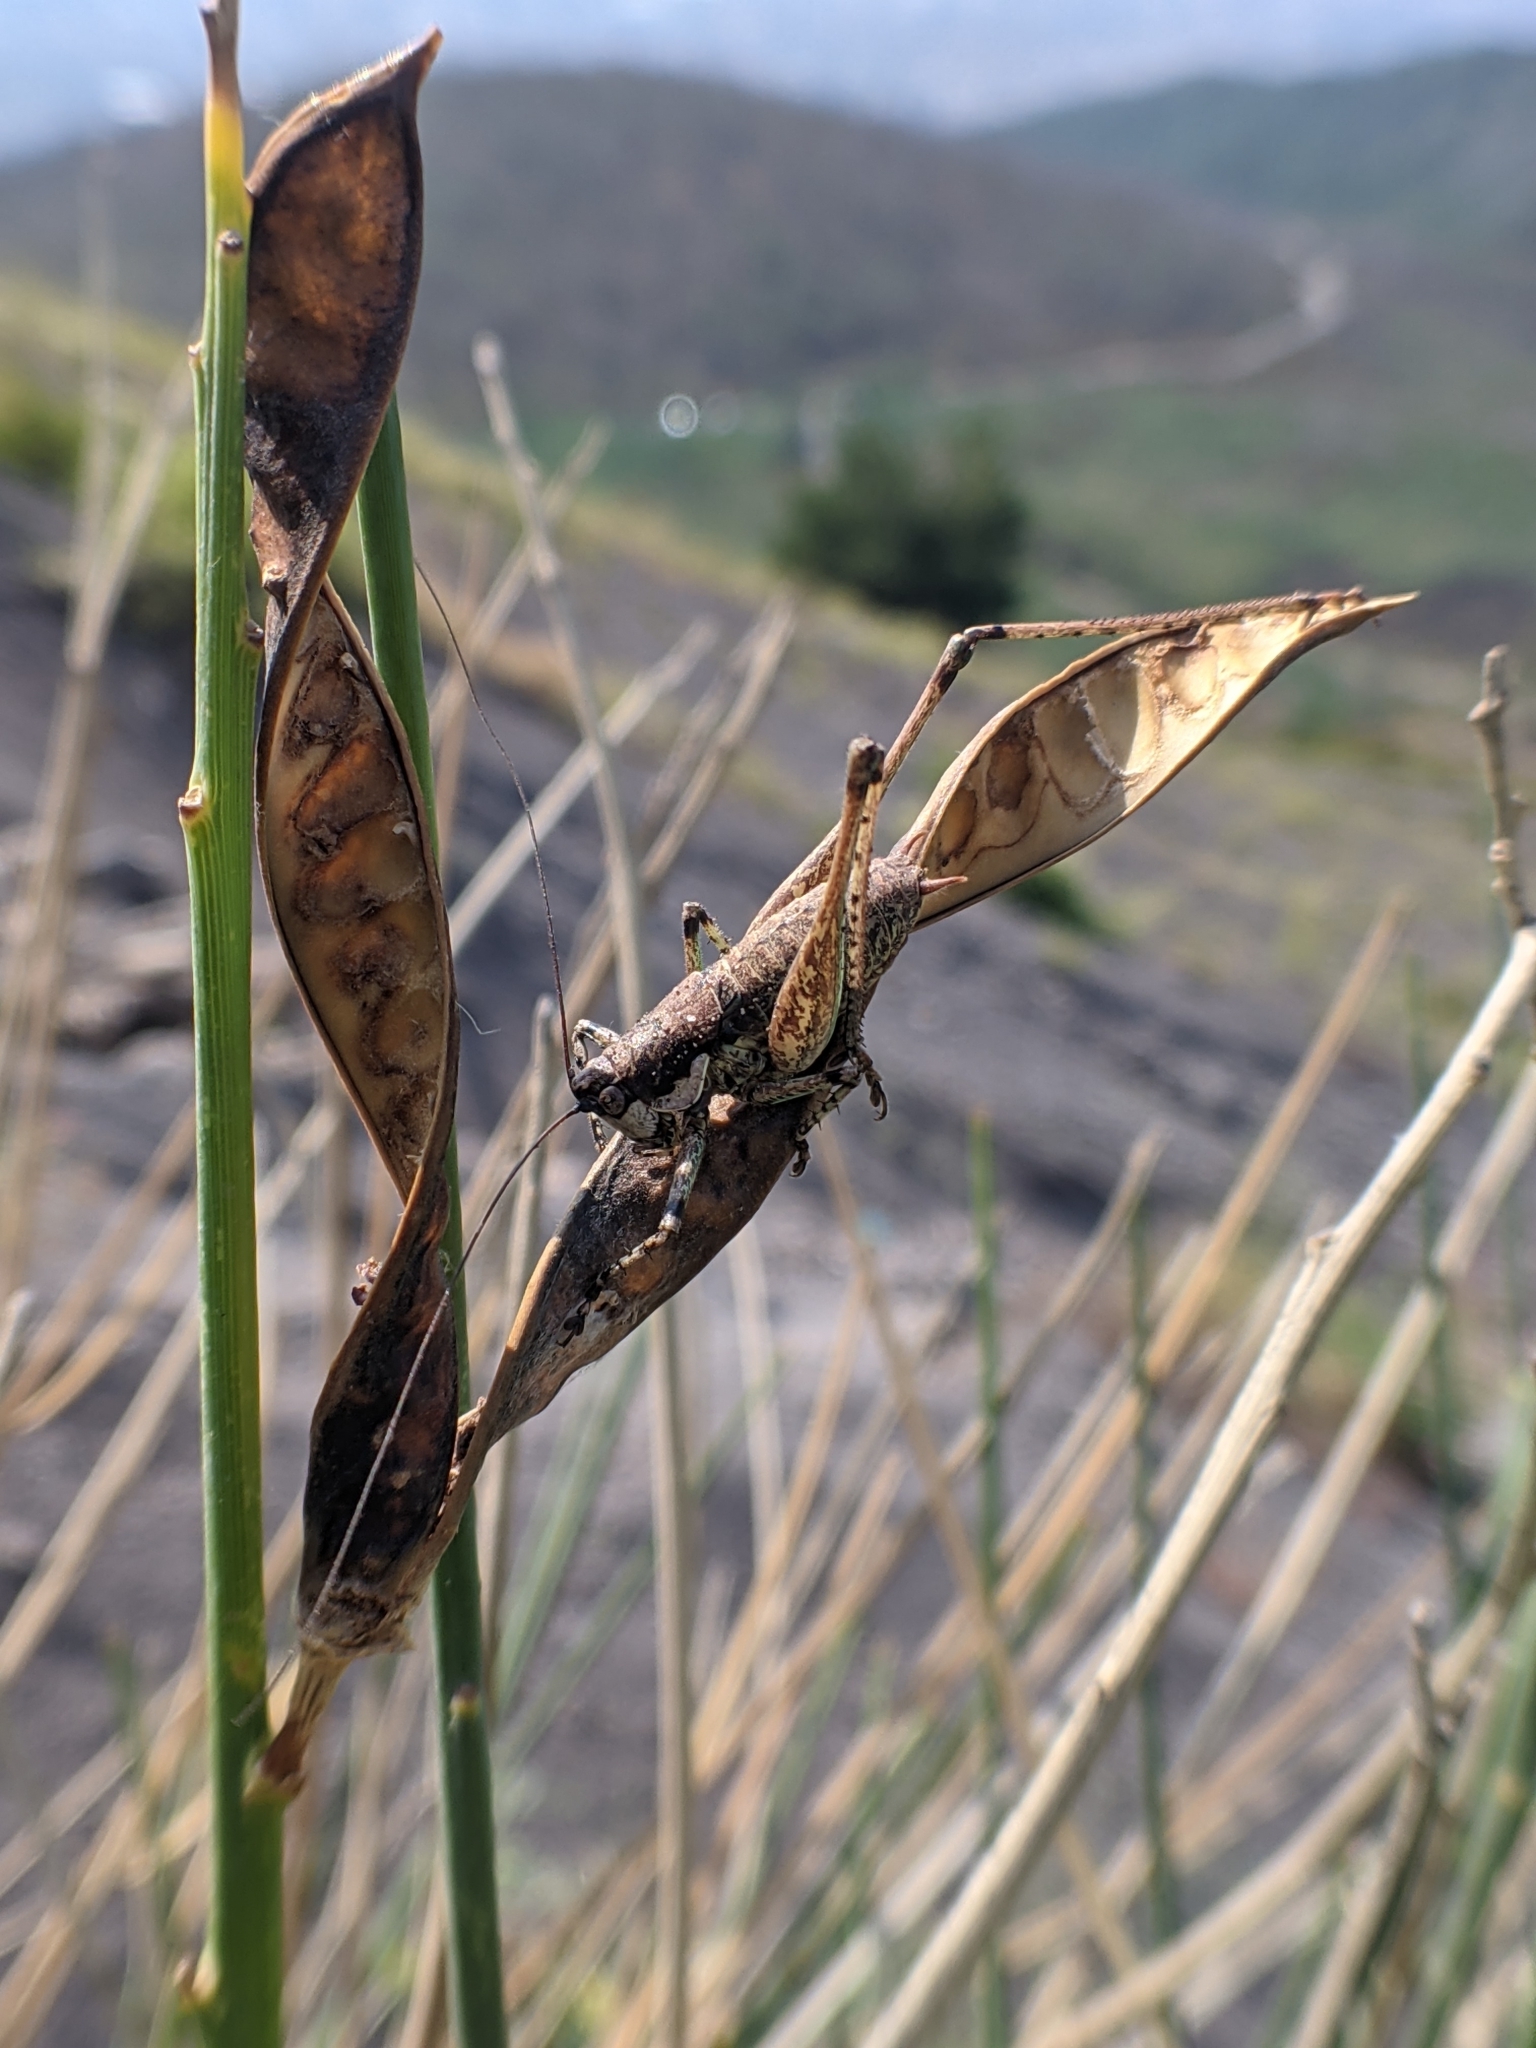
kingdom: Animalia
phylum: Arthropoda
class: Insecta
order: Orthoptera
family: Tettigoniidae
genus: Rhacocleis
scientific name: Rhacocleis annulata
